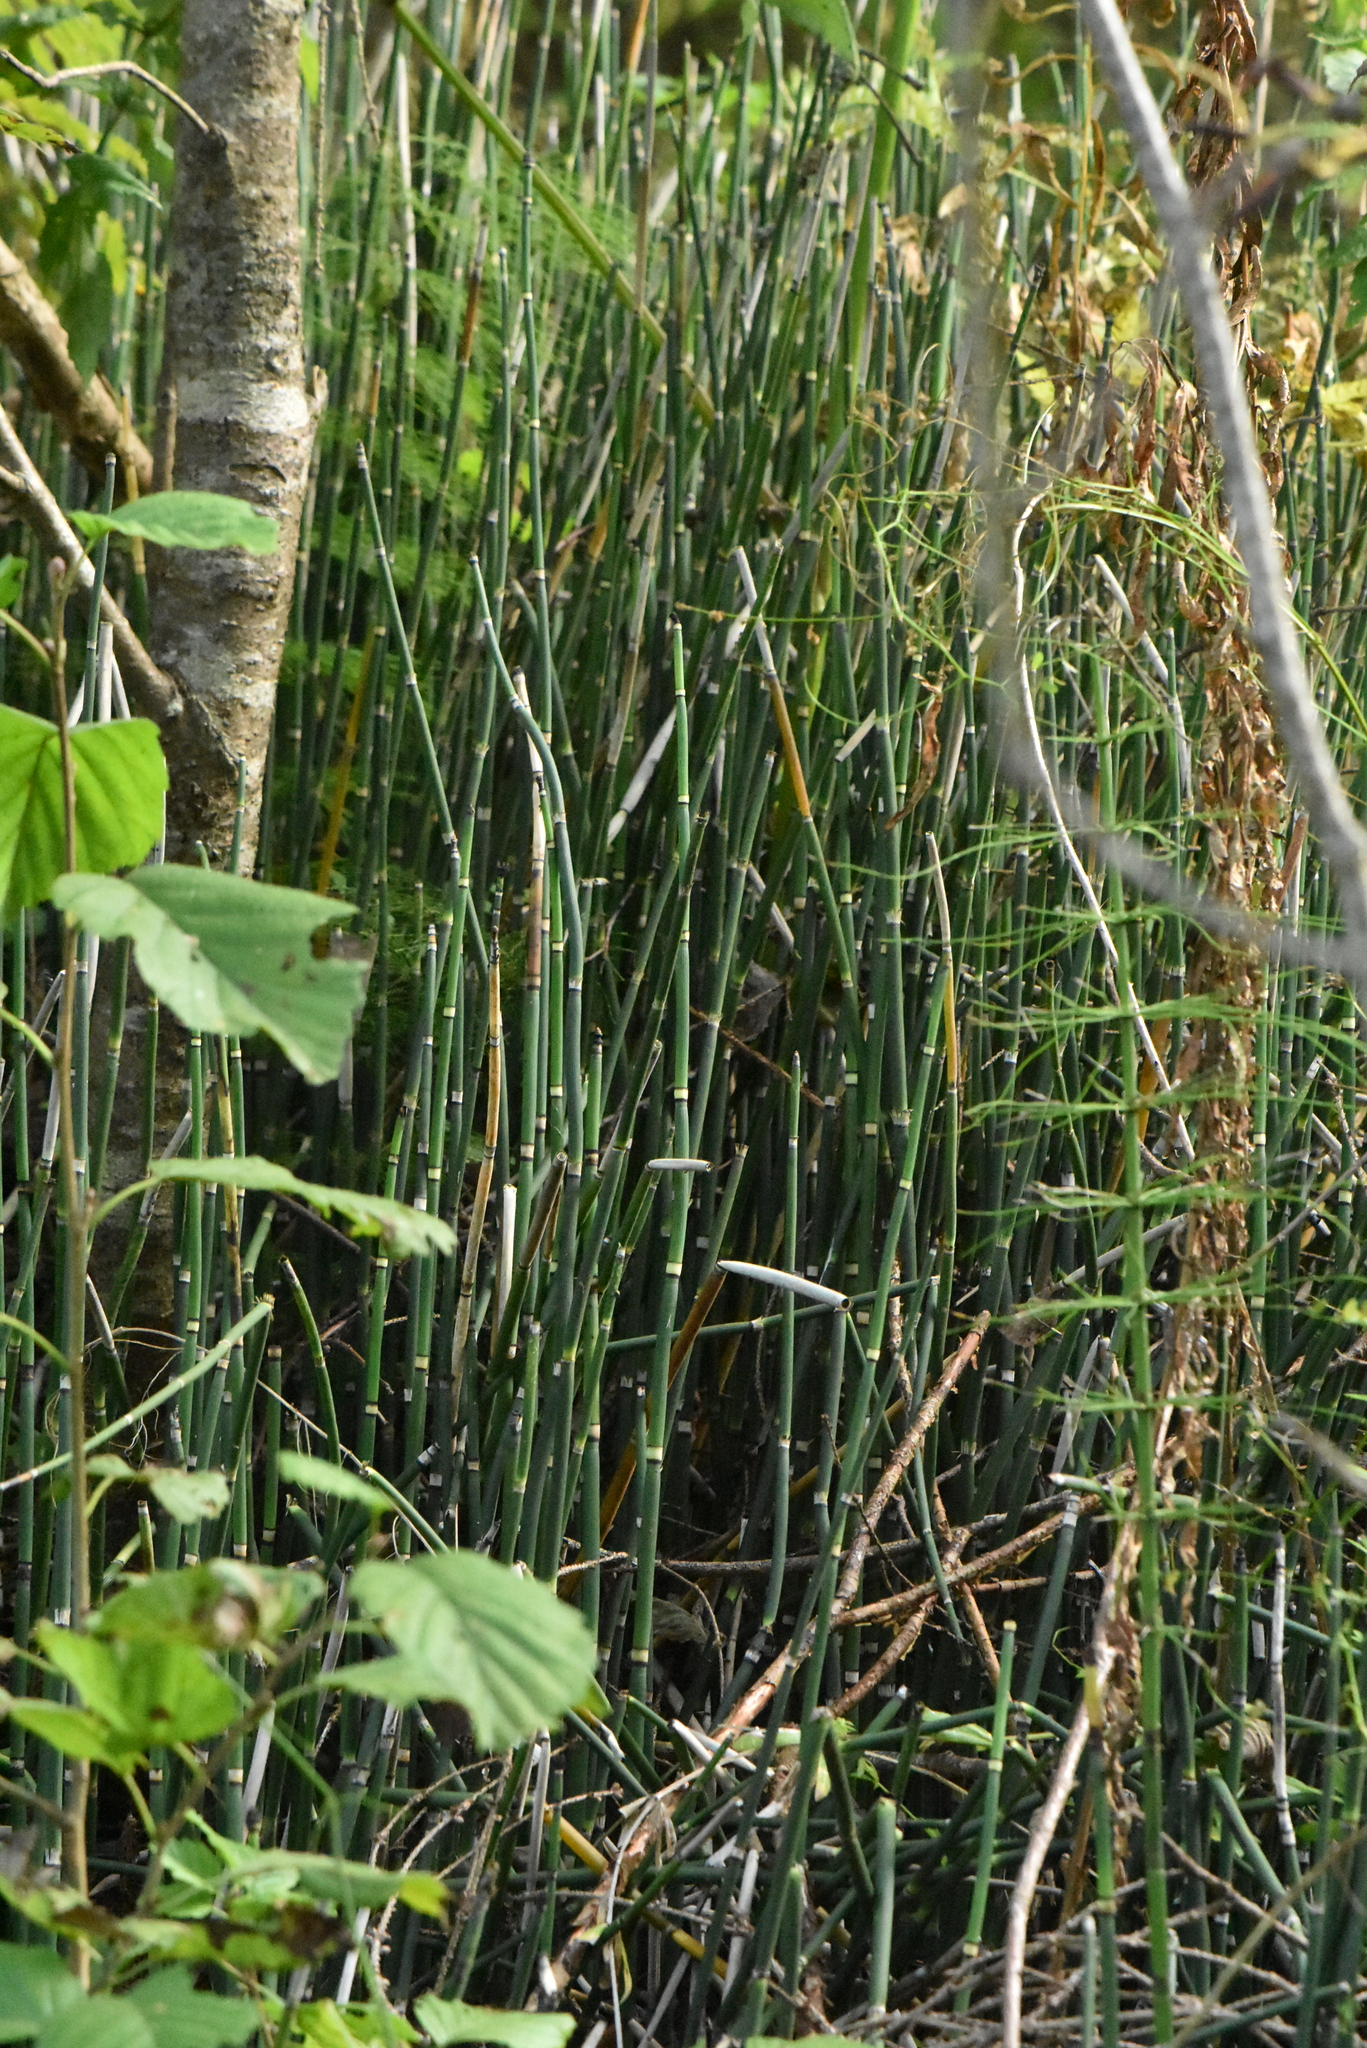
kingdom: Plantae
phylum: Tracheophyta
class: Polypodiopsida
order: Equisetales
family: Equisetaceae
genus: Equisetum
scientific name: Equisetum hyemale
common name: Rough horsetail
